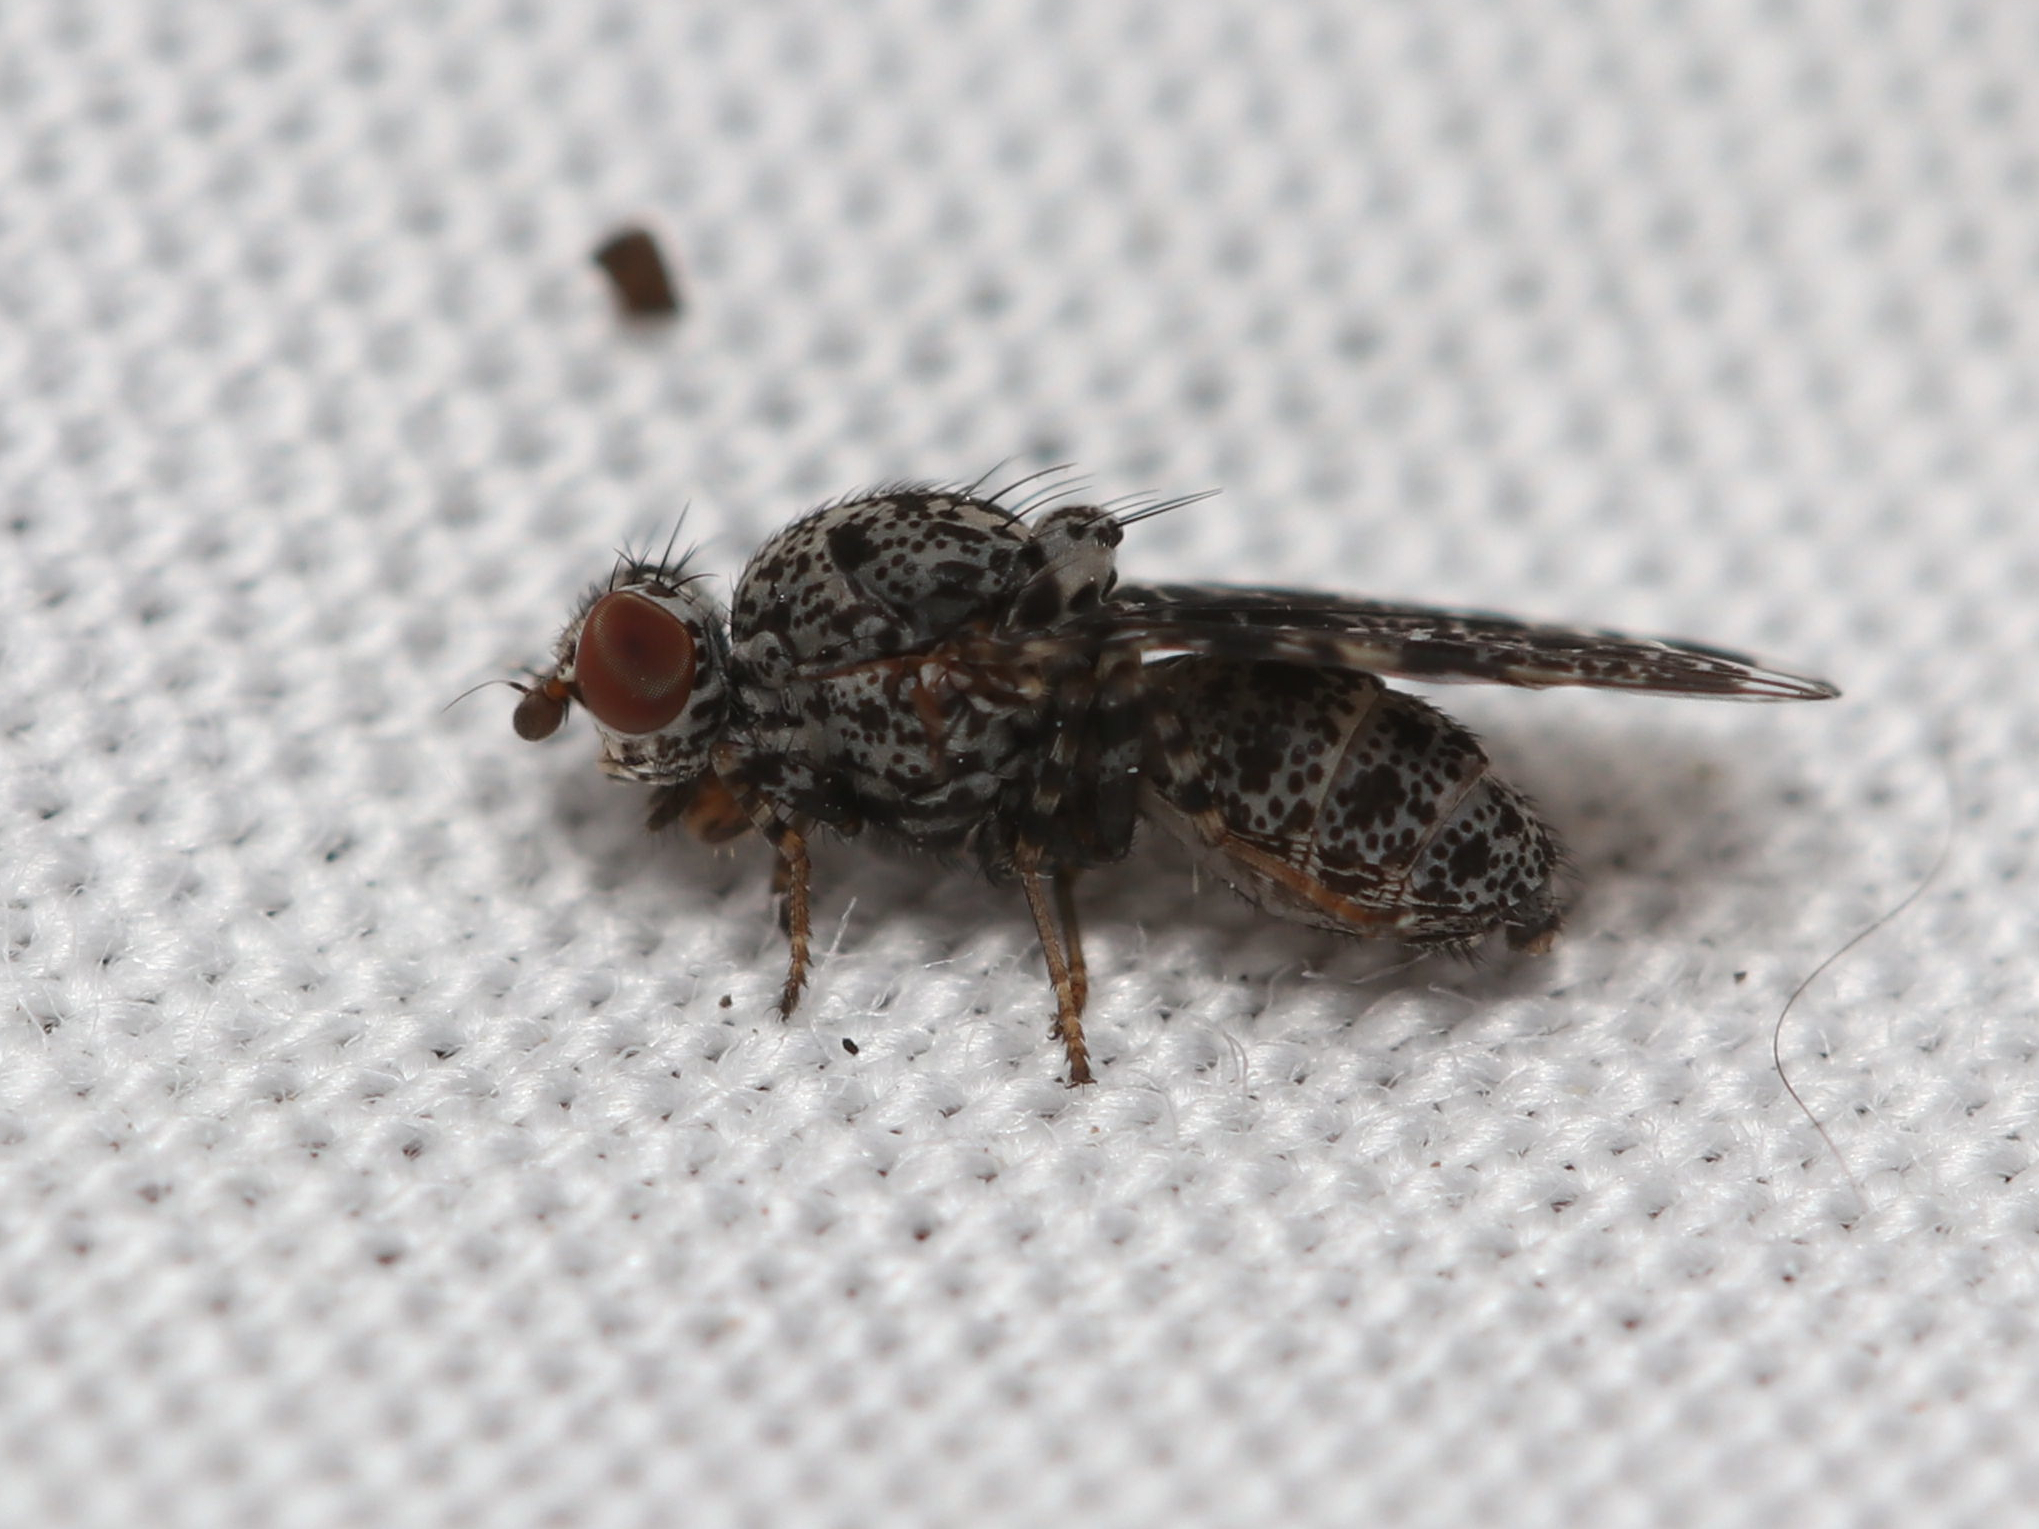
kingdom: Animalia
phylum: Arthropoda
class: Insecta
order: Diptera
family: Ulidiidae
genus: Callopistromyia
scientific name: Callopistromyia annulipes
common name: Peacock fly
